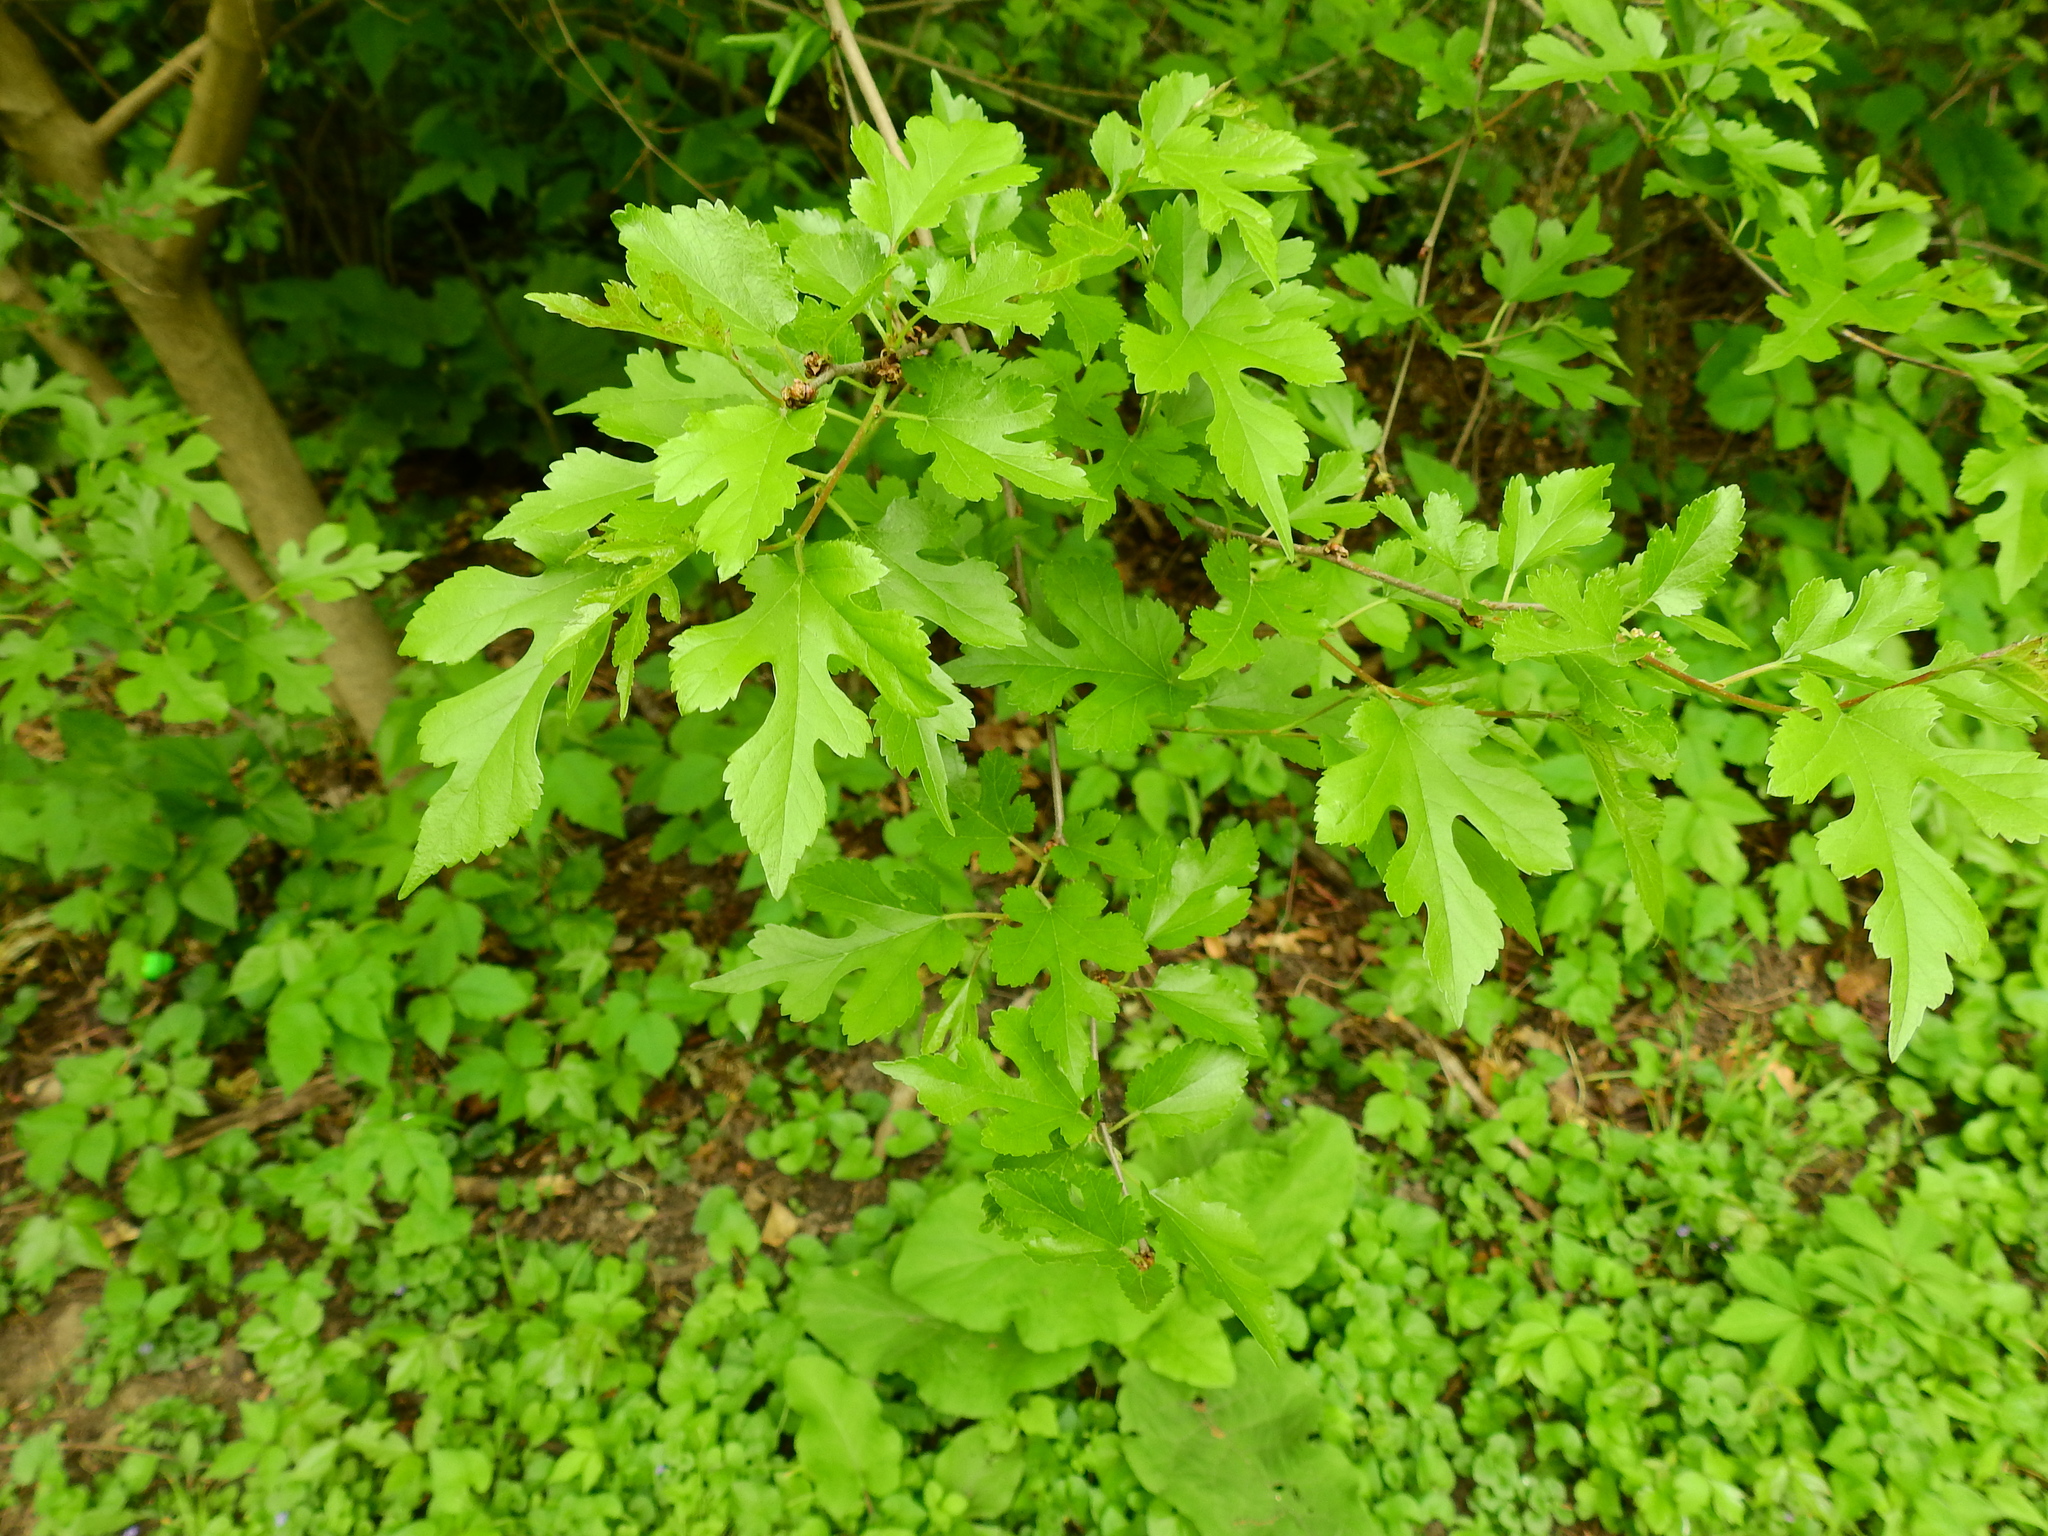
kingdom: Plantae
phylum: Tracheophyta
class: Magnoliopsida
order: Rosales
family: Moraceae
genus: Morus
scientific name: Morus alba
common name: White mulberry
